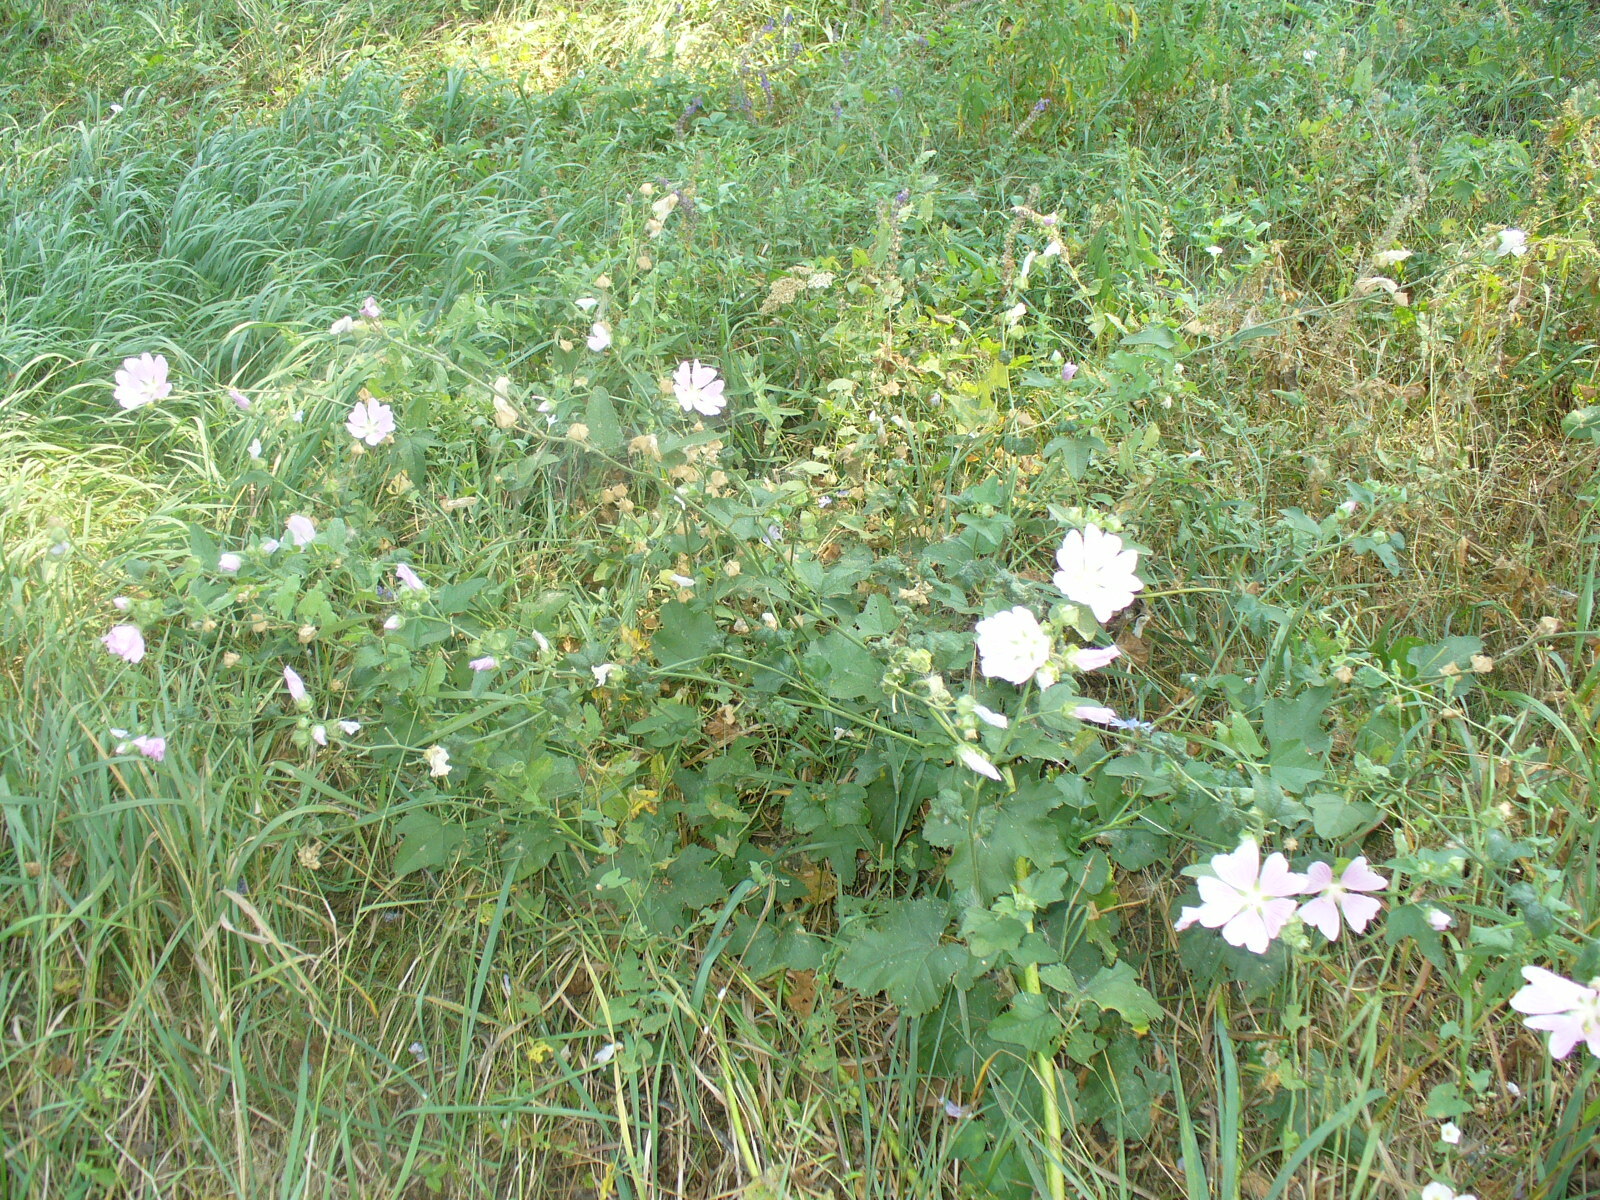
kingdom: Plantae
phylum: Tracheophyta
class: Magnoliopsida
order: Malvales
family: Malvaceae
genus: Malva
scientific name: Malva thuringiaca
